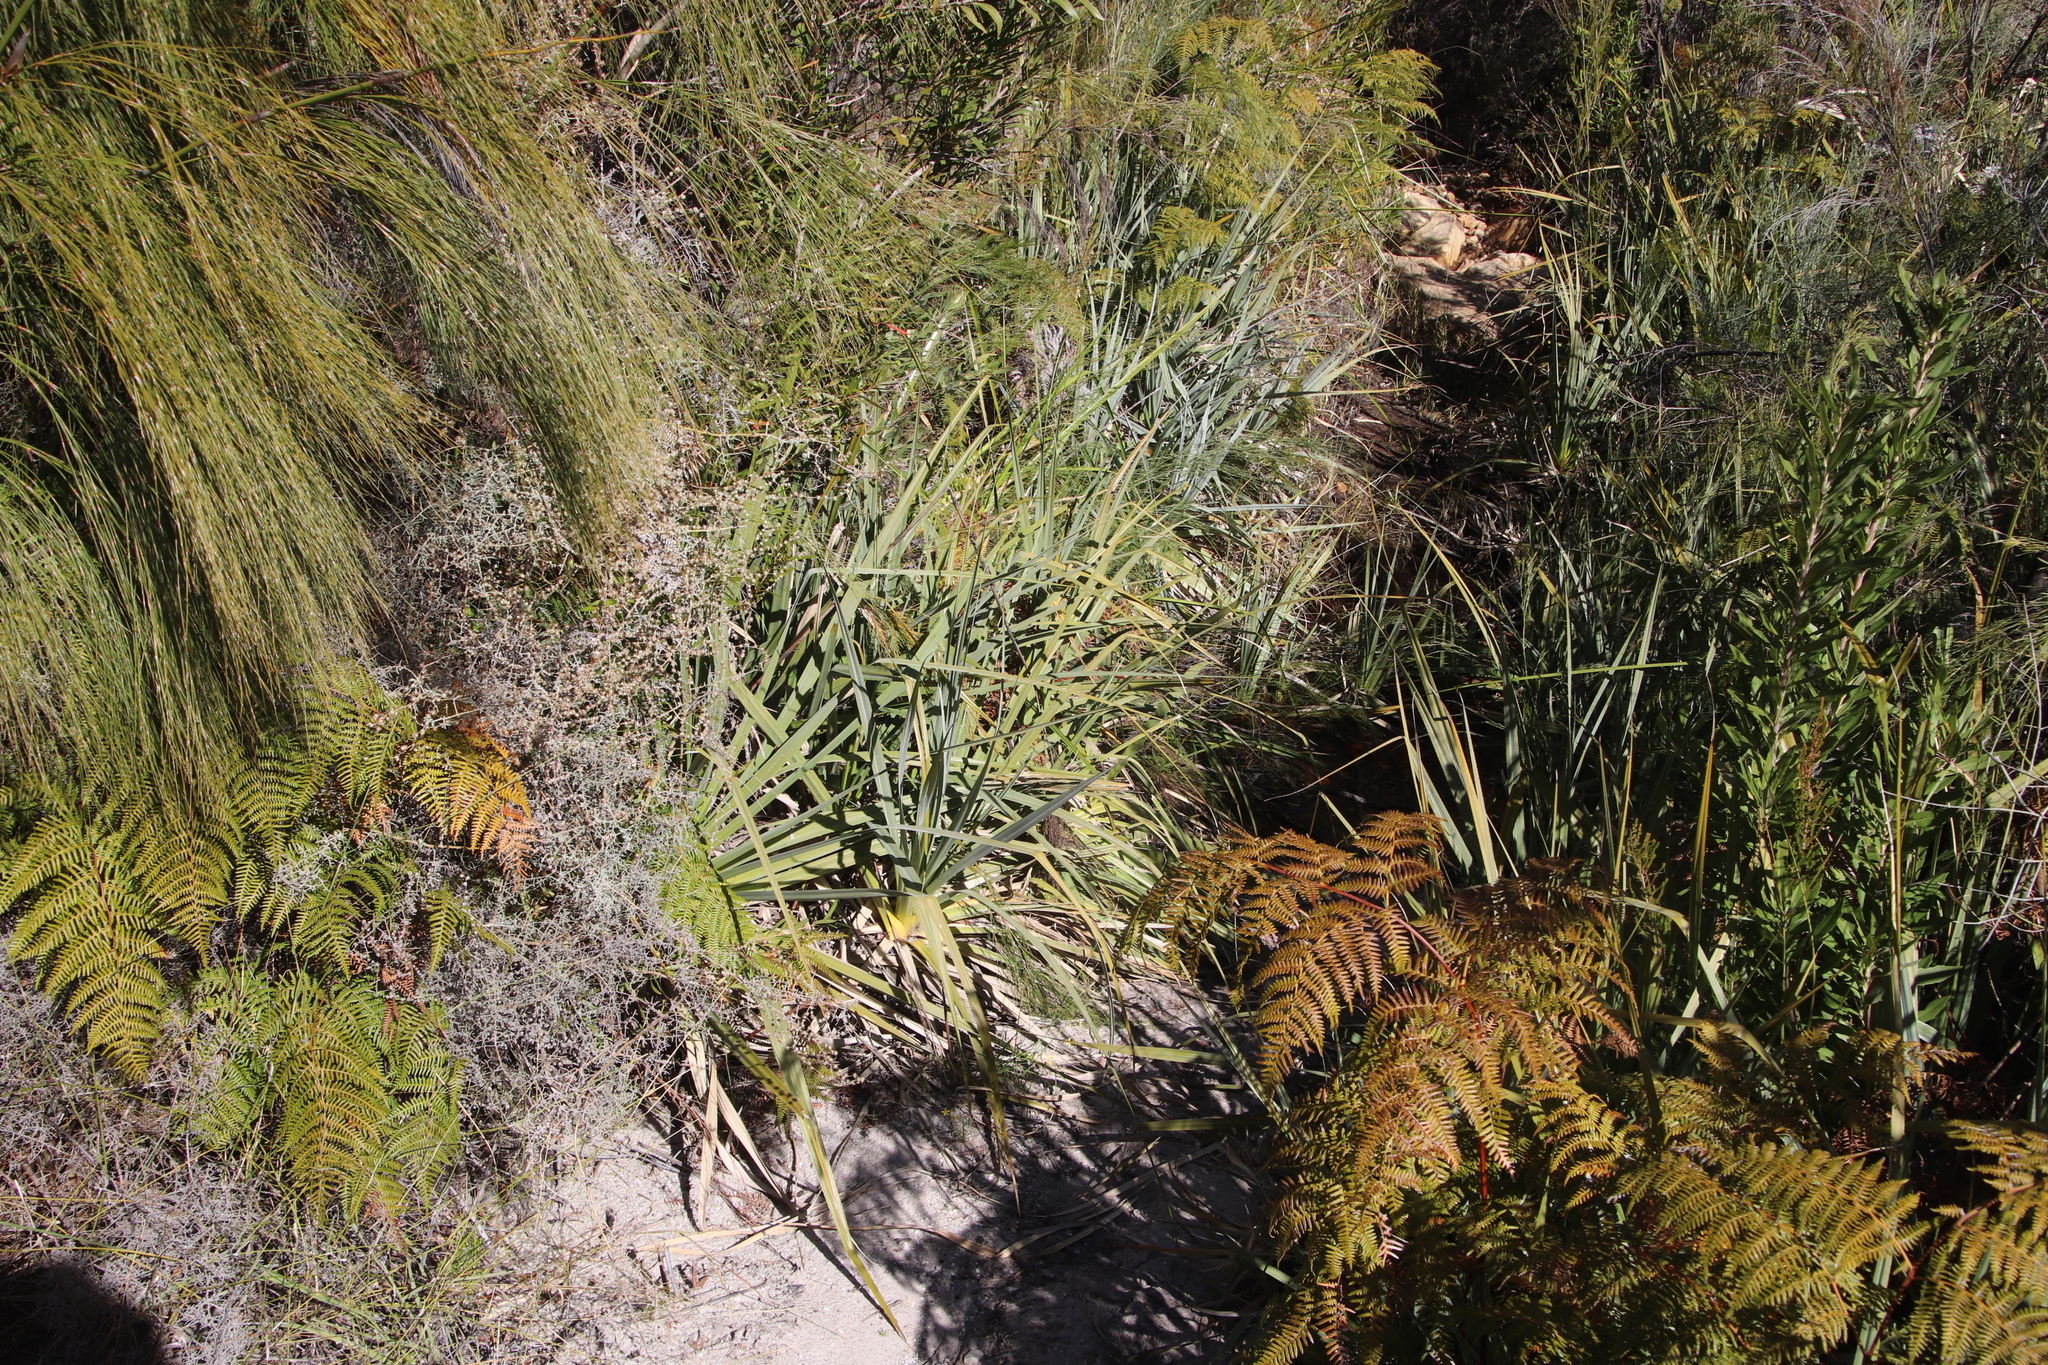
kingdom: Plantae
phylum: Tracheophyta
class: Liliopsida
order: Poales
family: Thurniaceae
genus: Prionium
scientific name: Prionium serratum
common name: Palmiet
